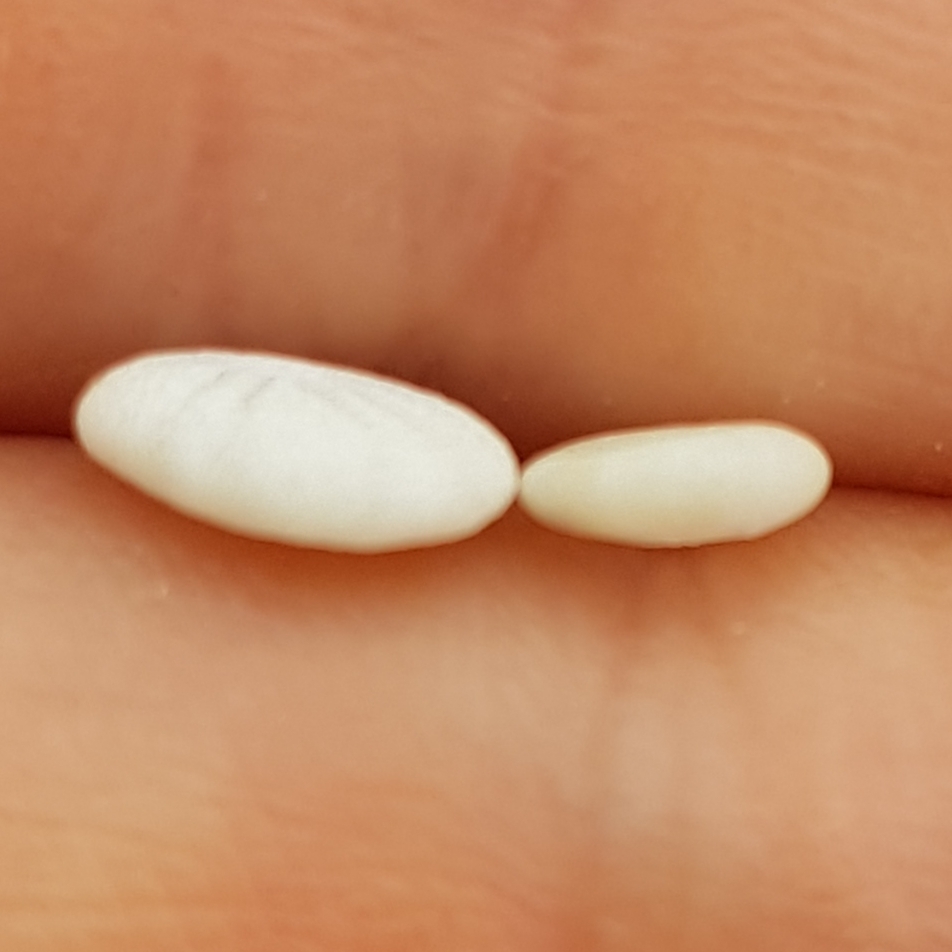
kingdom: Animalia
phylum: Echinodermata
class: Echinoidea
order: Echinolampadacea
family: Fibulariidae
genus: Echinocyamus
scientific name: Echinocyamus pusillus
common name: Broad beau of sea
